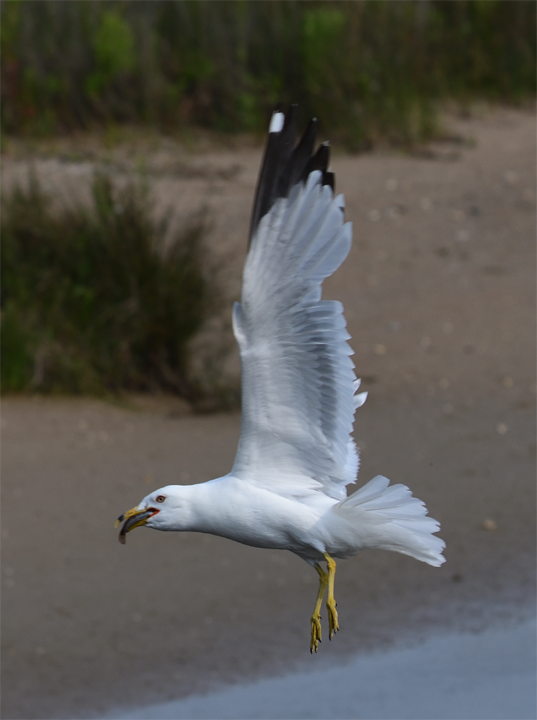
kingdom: Animalia
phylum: Chordata
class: Aves
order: Charadriiformes
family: Laridae
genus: Larus
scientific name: Larus delawarensis
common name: Ring-billed gull
